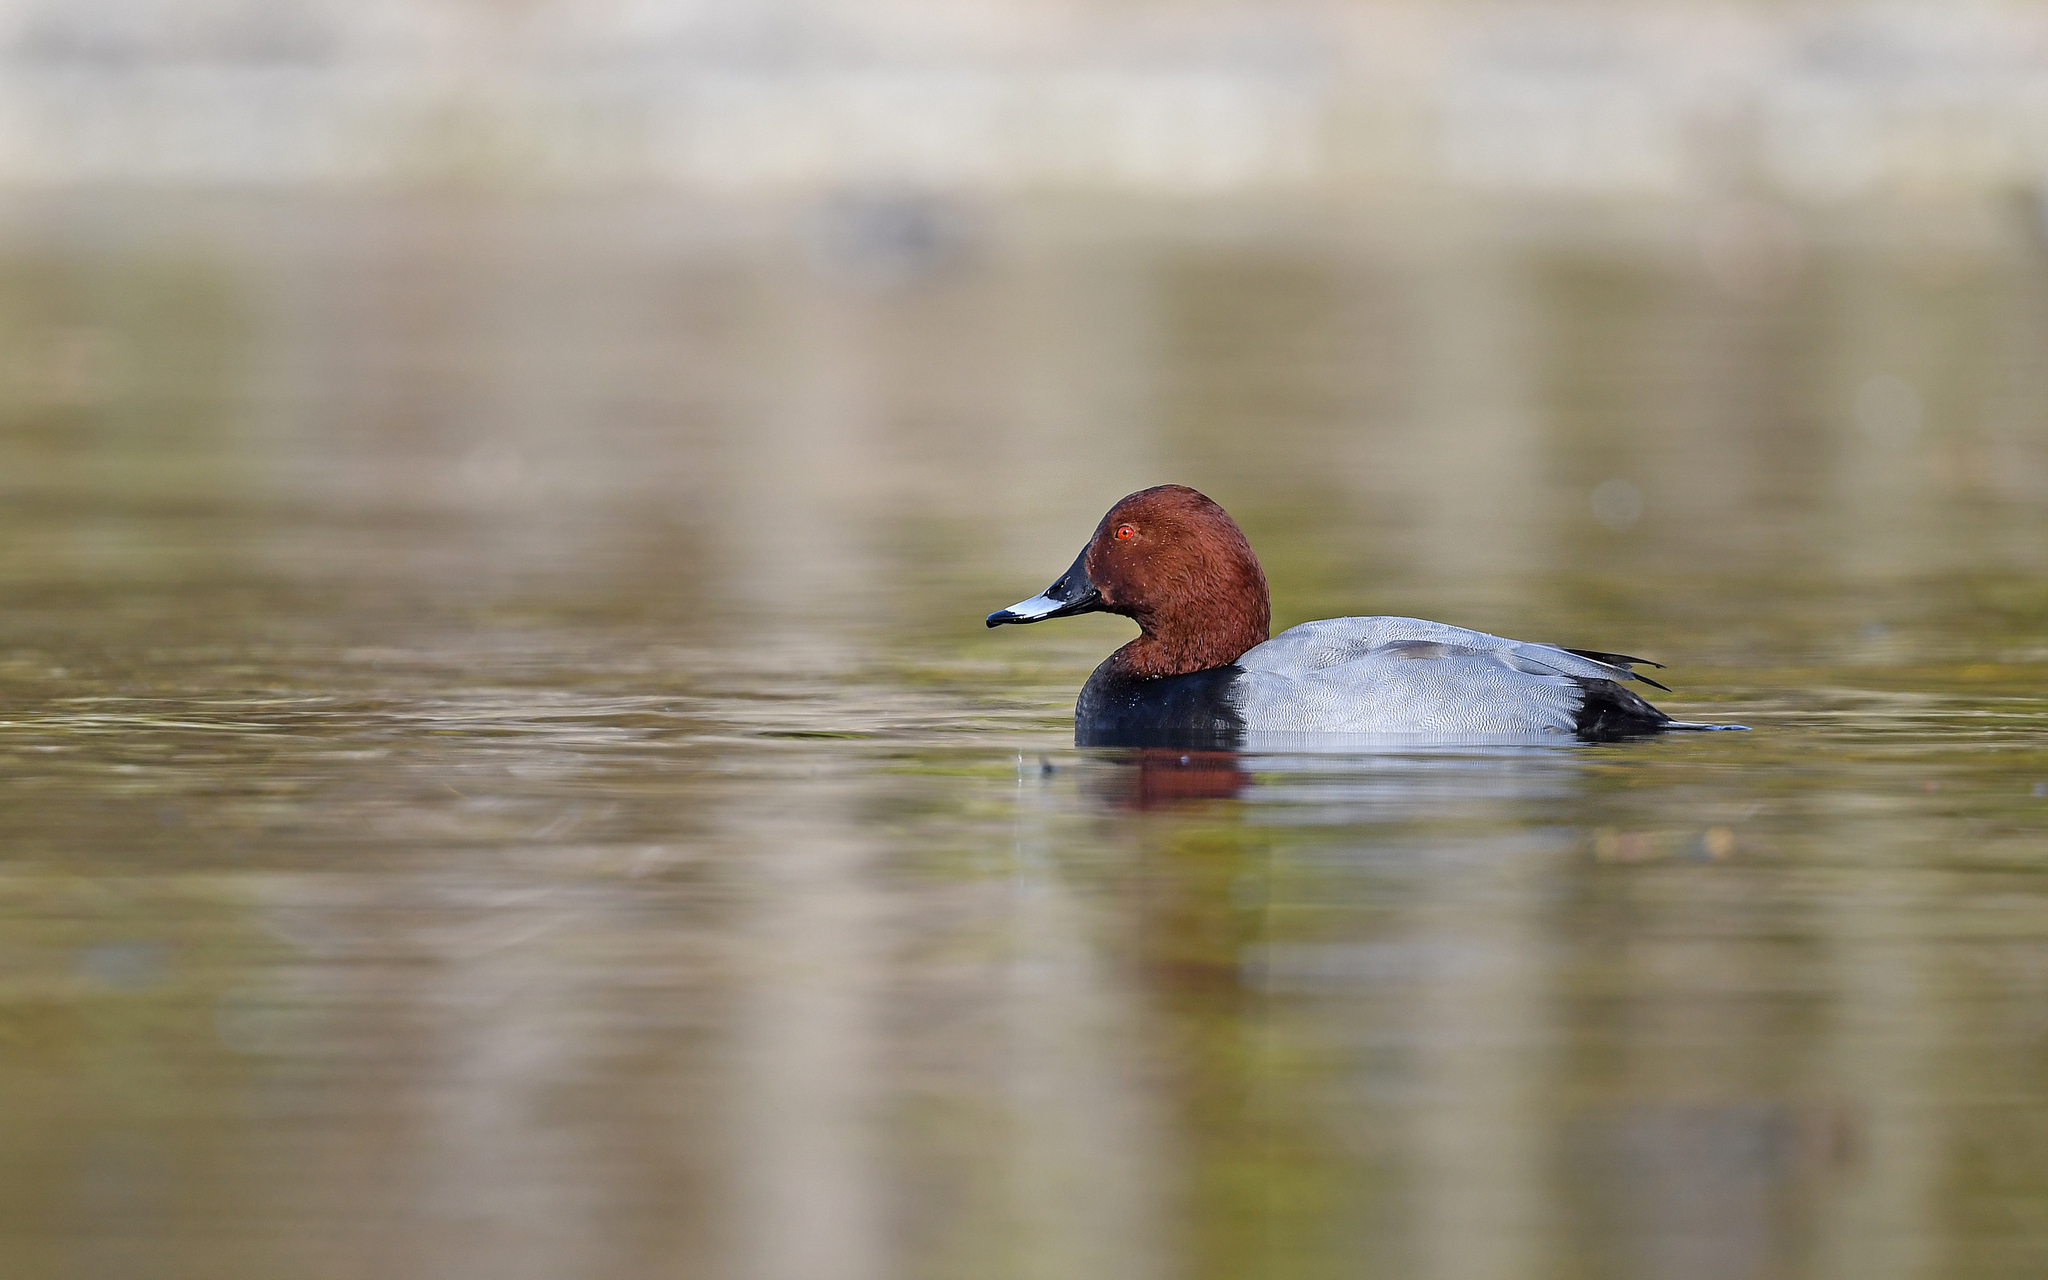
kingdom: Animalia
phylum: Chordata
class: Aves
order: Anseriformes
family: Anatidae
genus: Aythya
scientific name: Aythya ferina
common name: Common pochard
